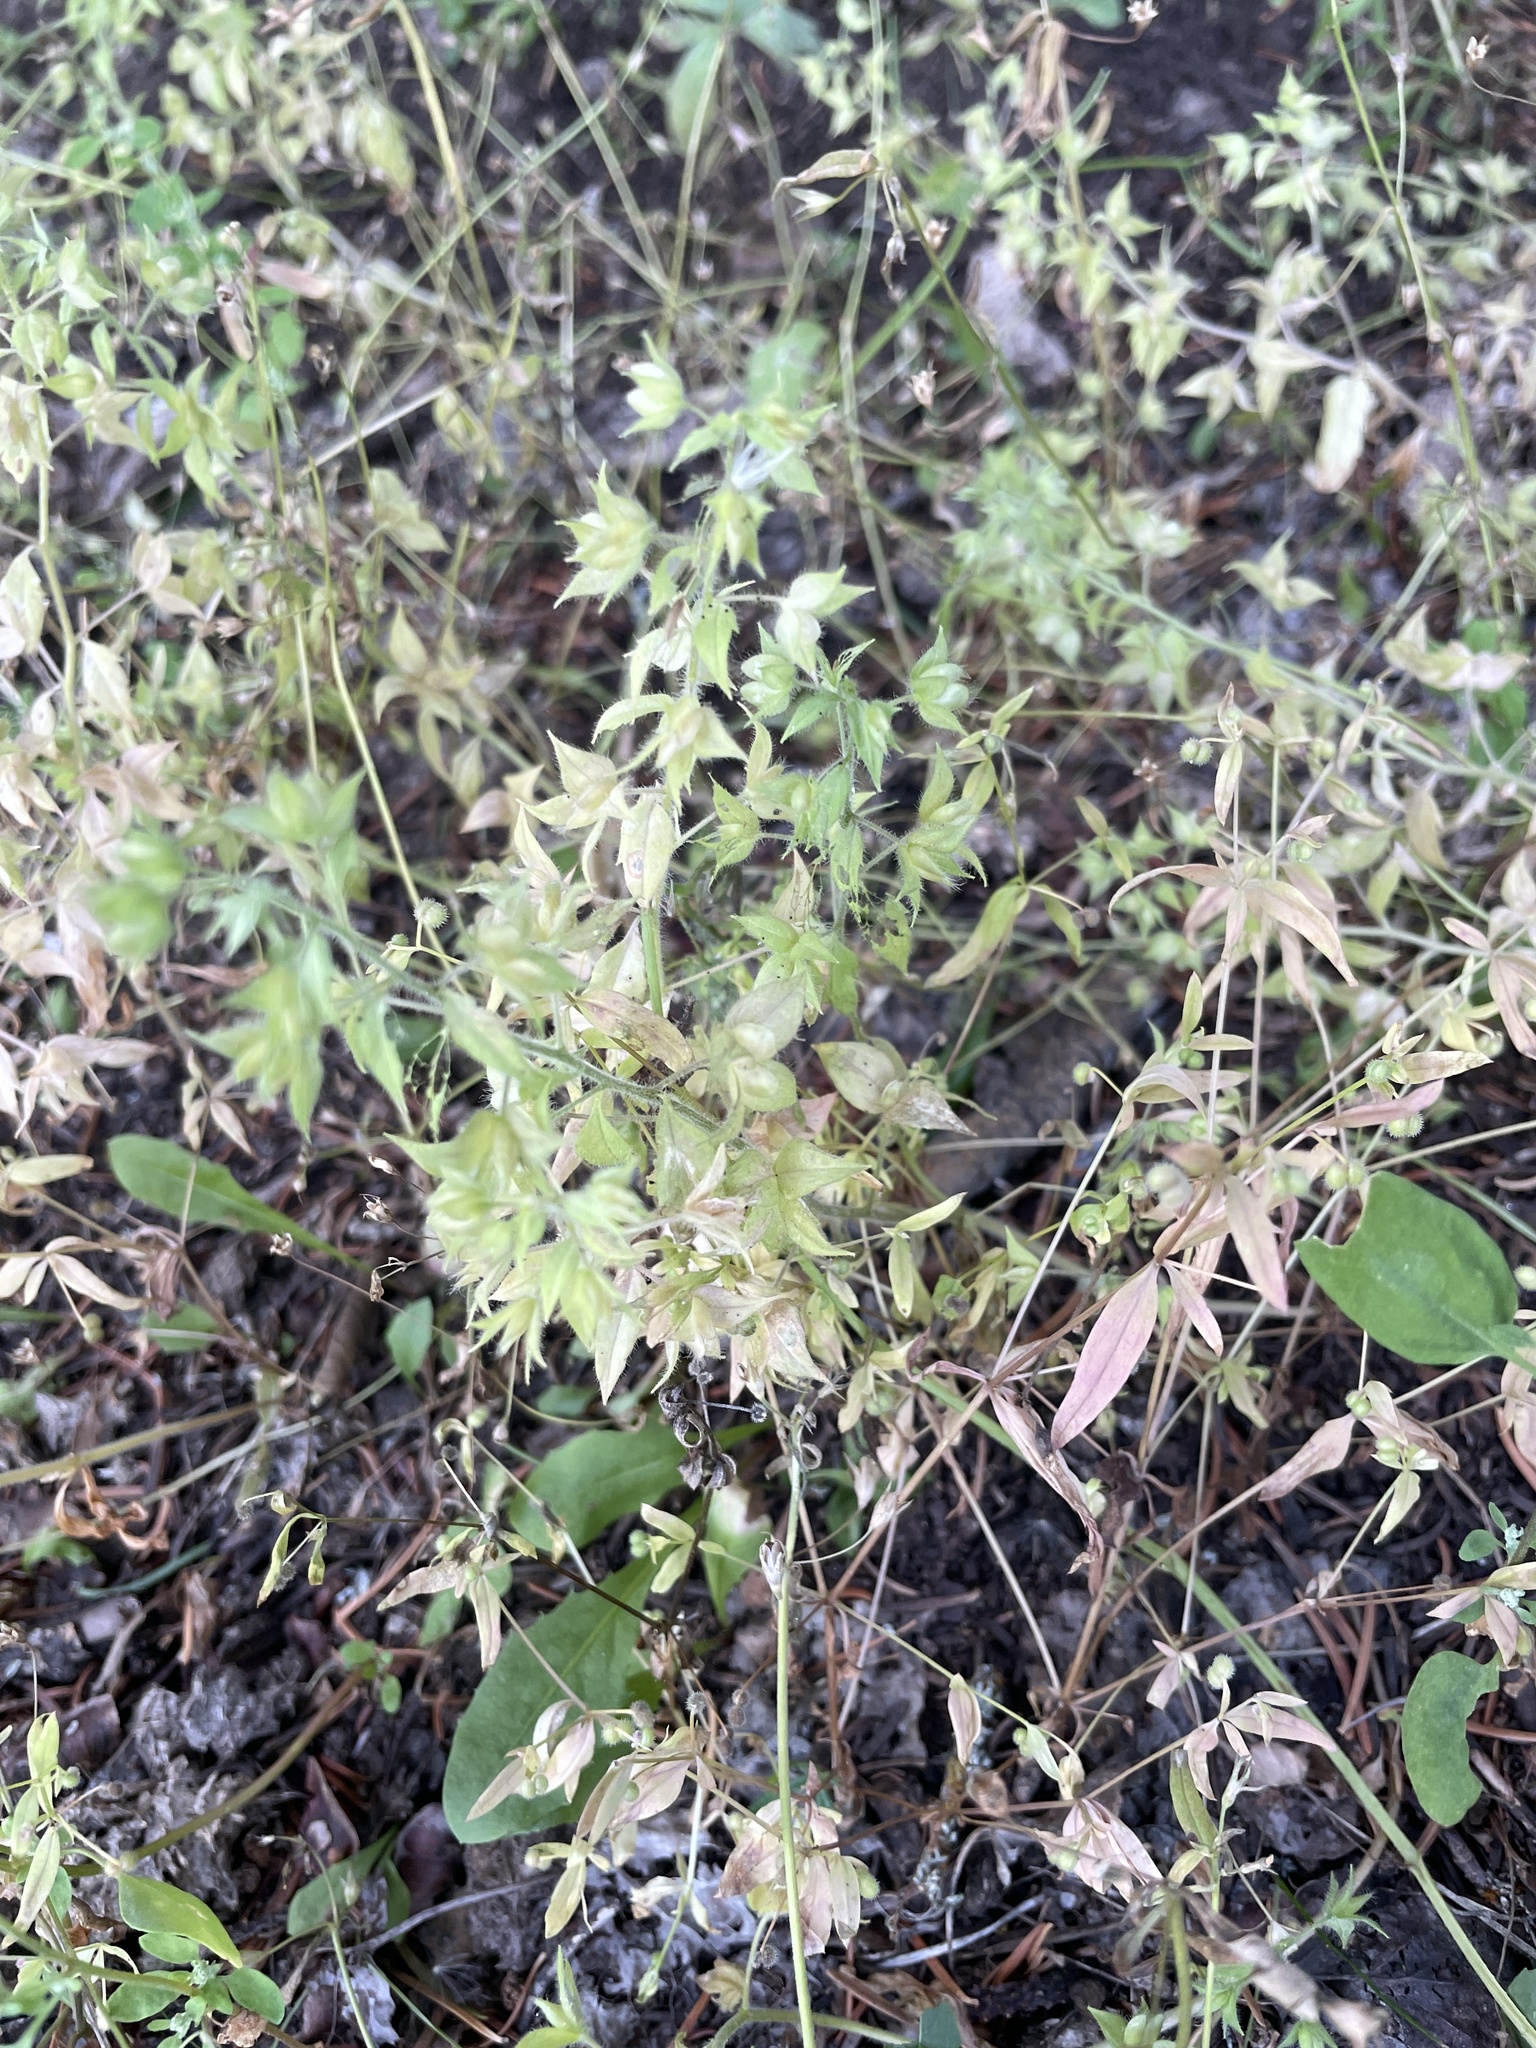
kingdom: Plantae
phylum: Tracheophyta
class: Magnoliopsida
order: Lamiales
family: Plantaginaceae
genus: Veronica
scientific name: Veronica biloba
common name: Twolobe speedwell
